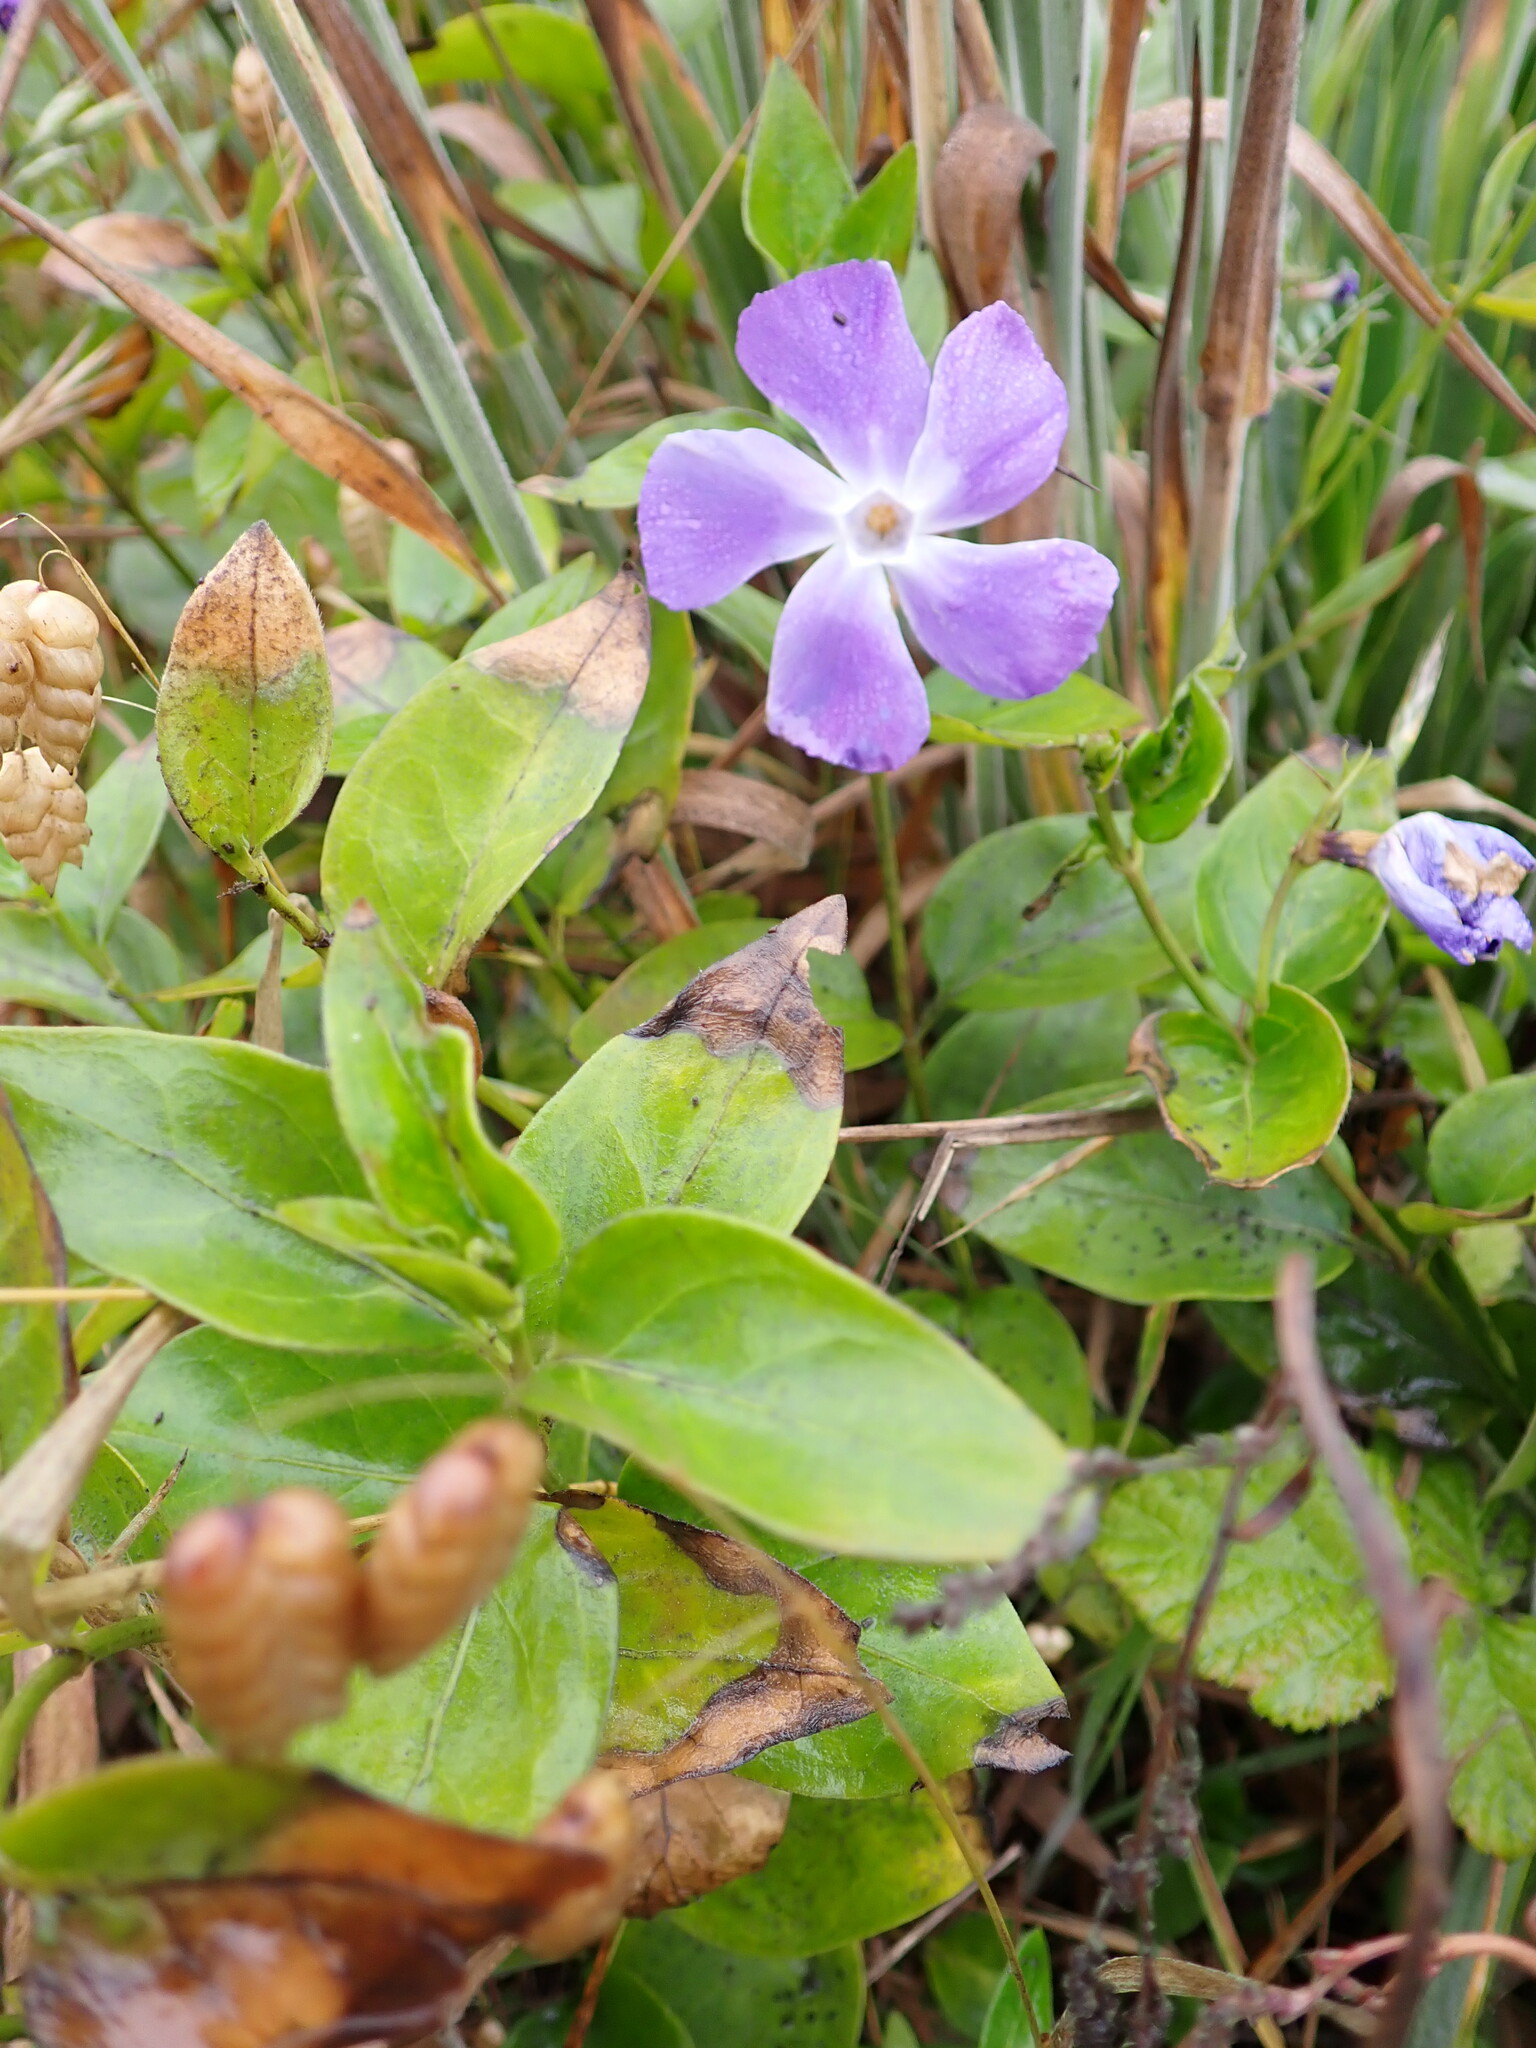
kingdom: Plantae
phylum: Tracheophyta
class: Magnoliopsida
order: Gentianales
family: Apocynaceae
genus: Vinca
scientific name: Vinca major
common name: Greater periwinkle
